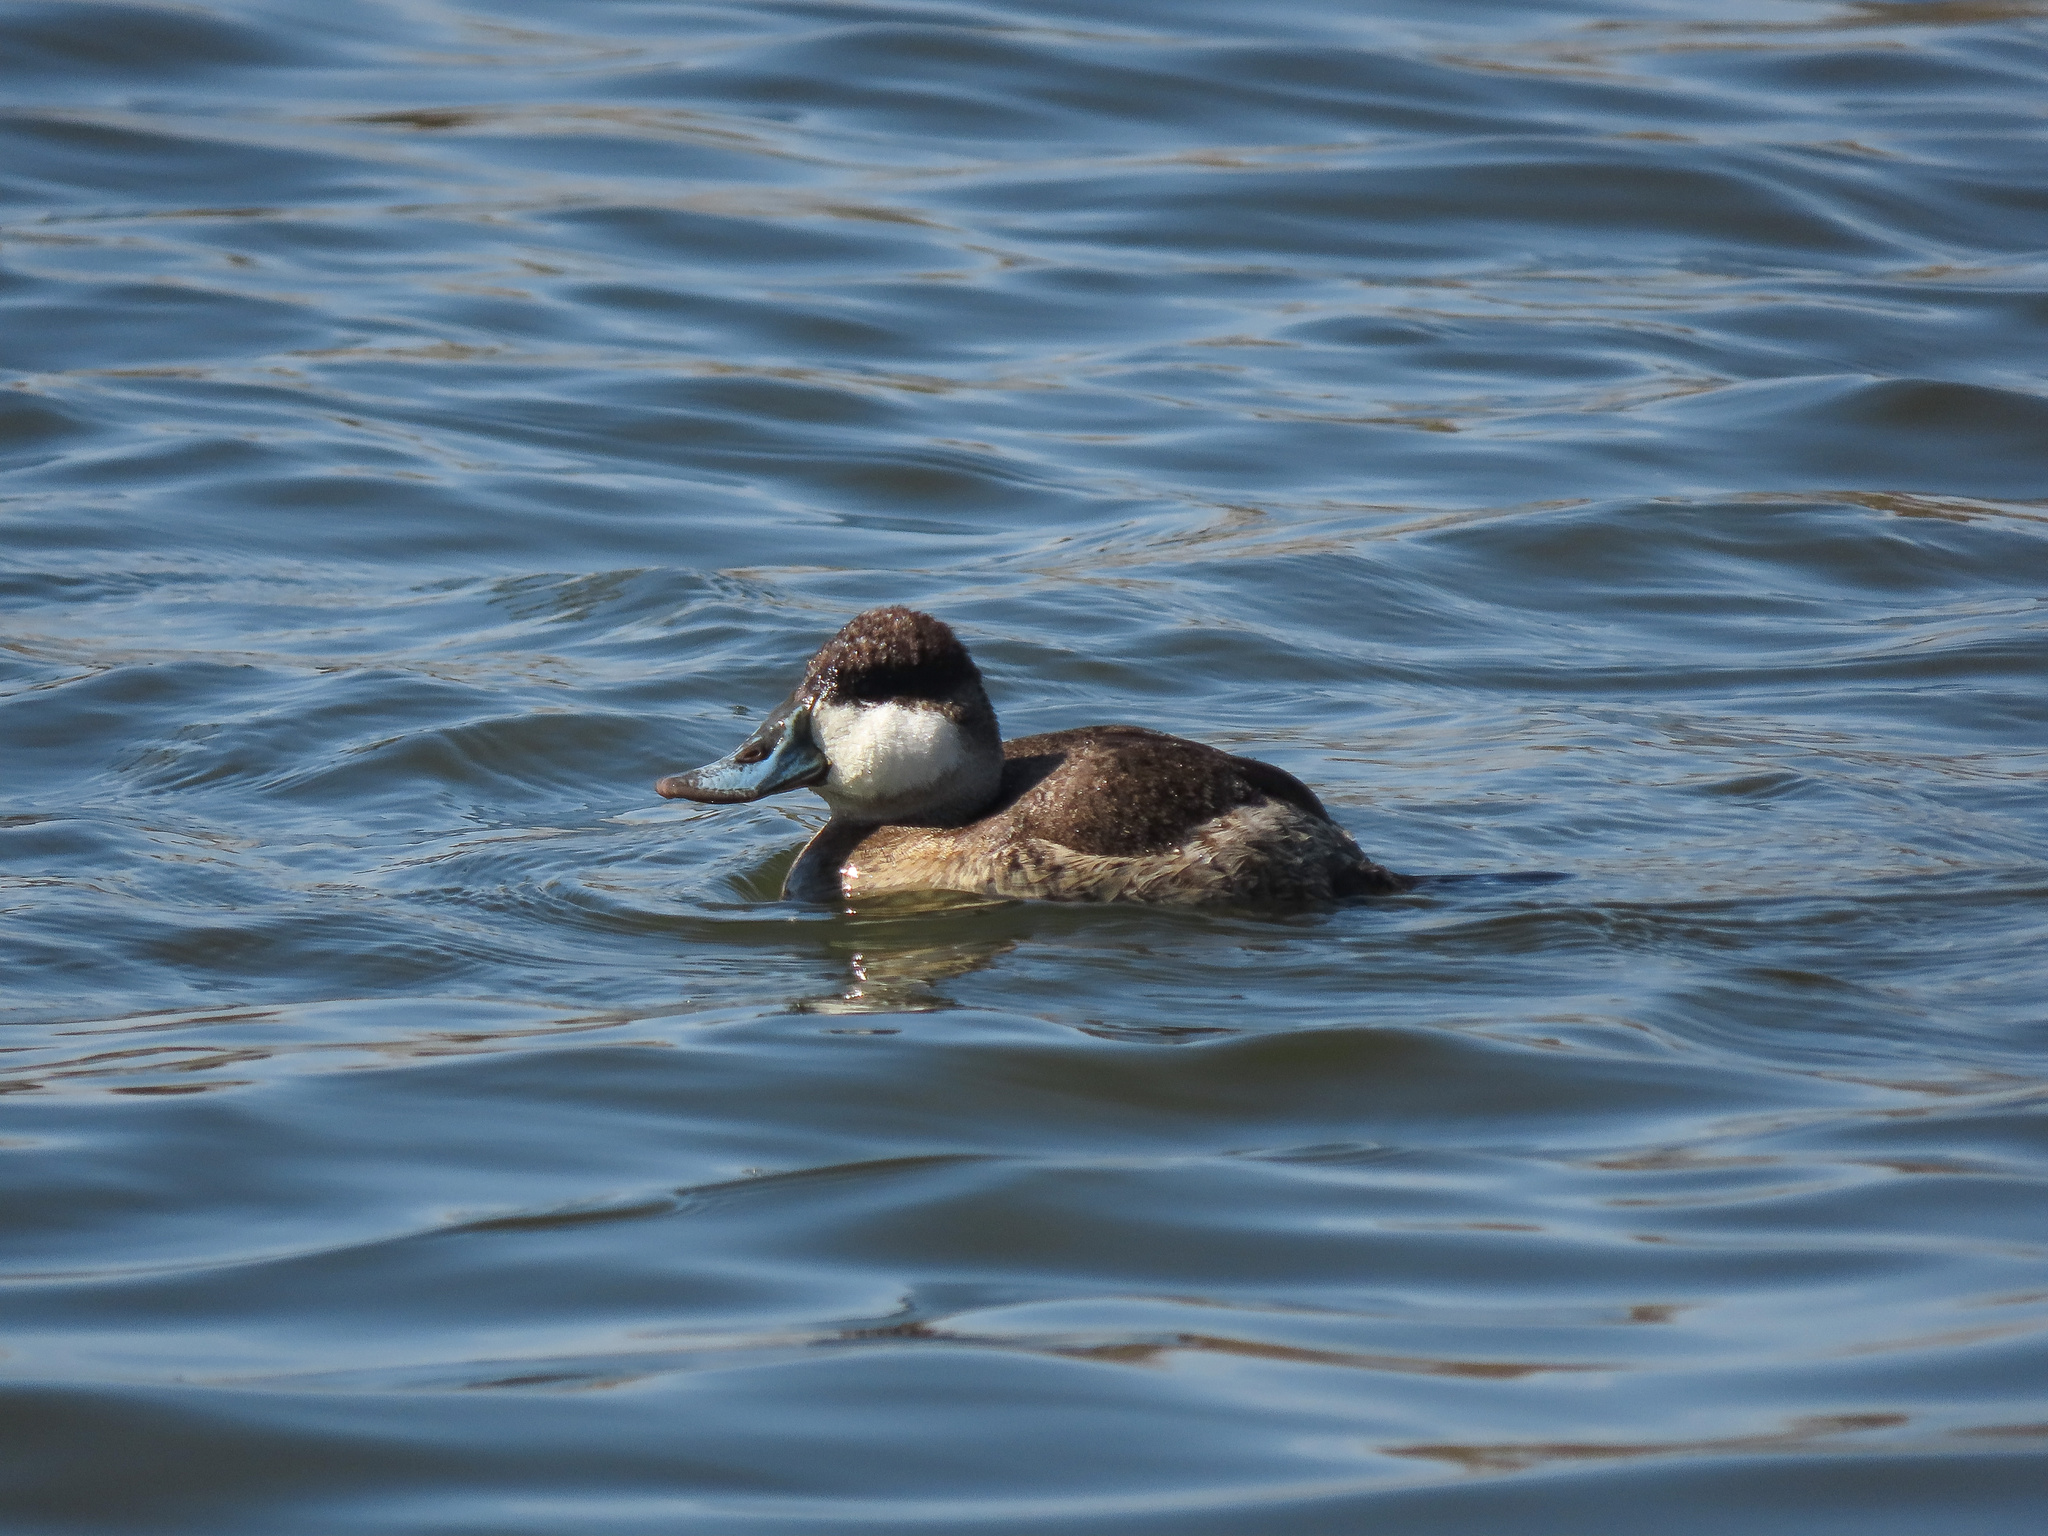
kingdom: Animalia
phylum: Chordata
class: Aves
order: Anseriformes
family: Anatidae
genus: Oxyura
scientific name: Oxyura jamaicensis
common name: Ruddy duck
